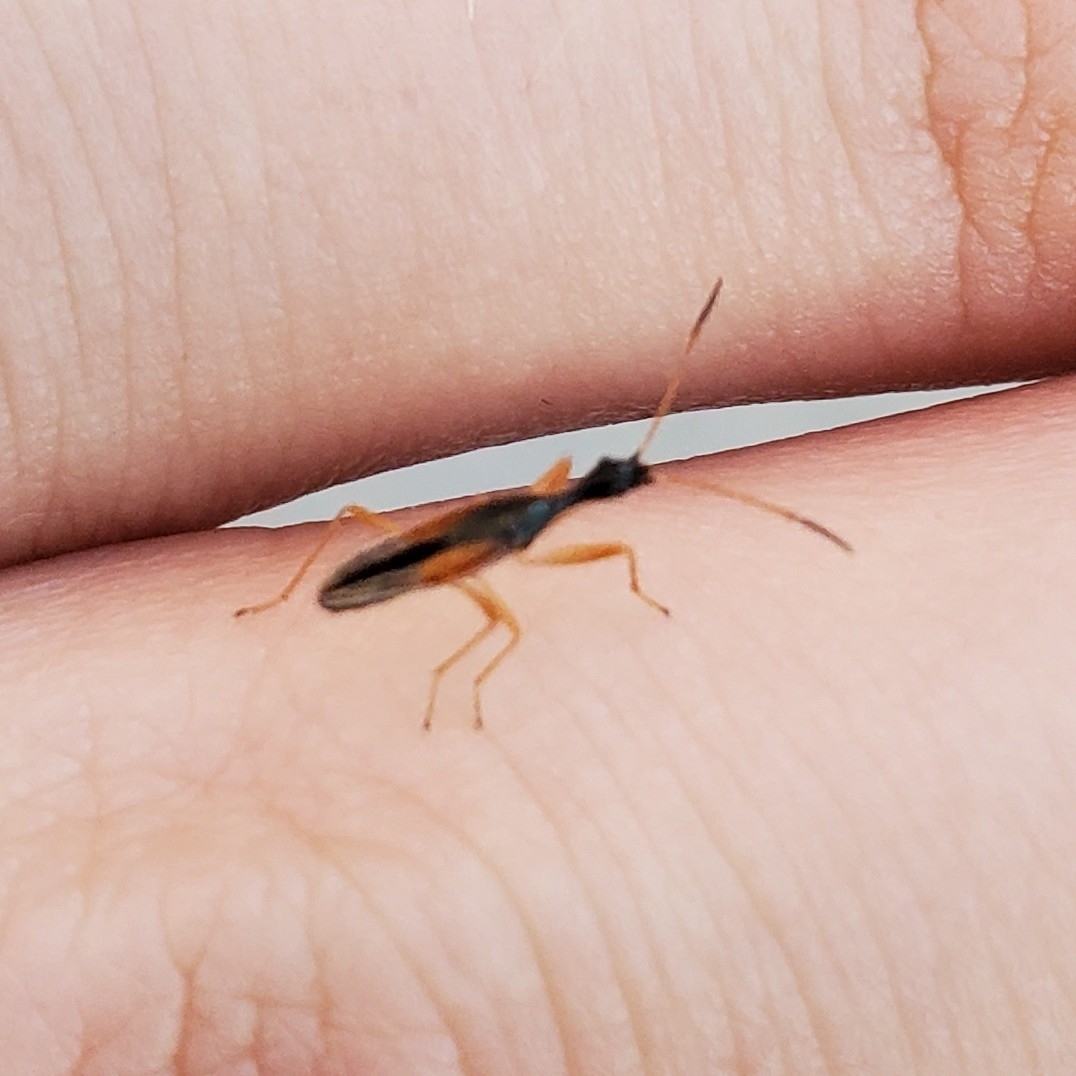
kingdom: Animalia
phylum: Arthropoda
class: Insecta
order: Hemiptera
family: Rhyparochromidae
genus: Myodocha
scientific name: Myodocha serripes
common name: Long-necked seed bug
